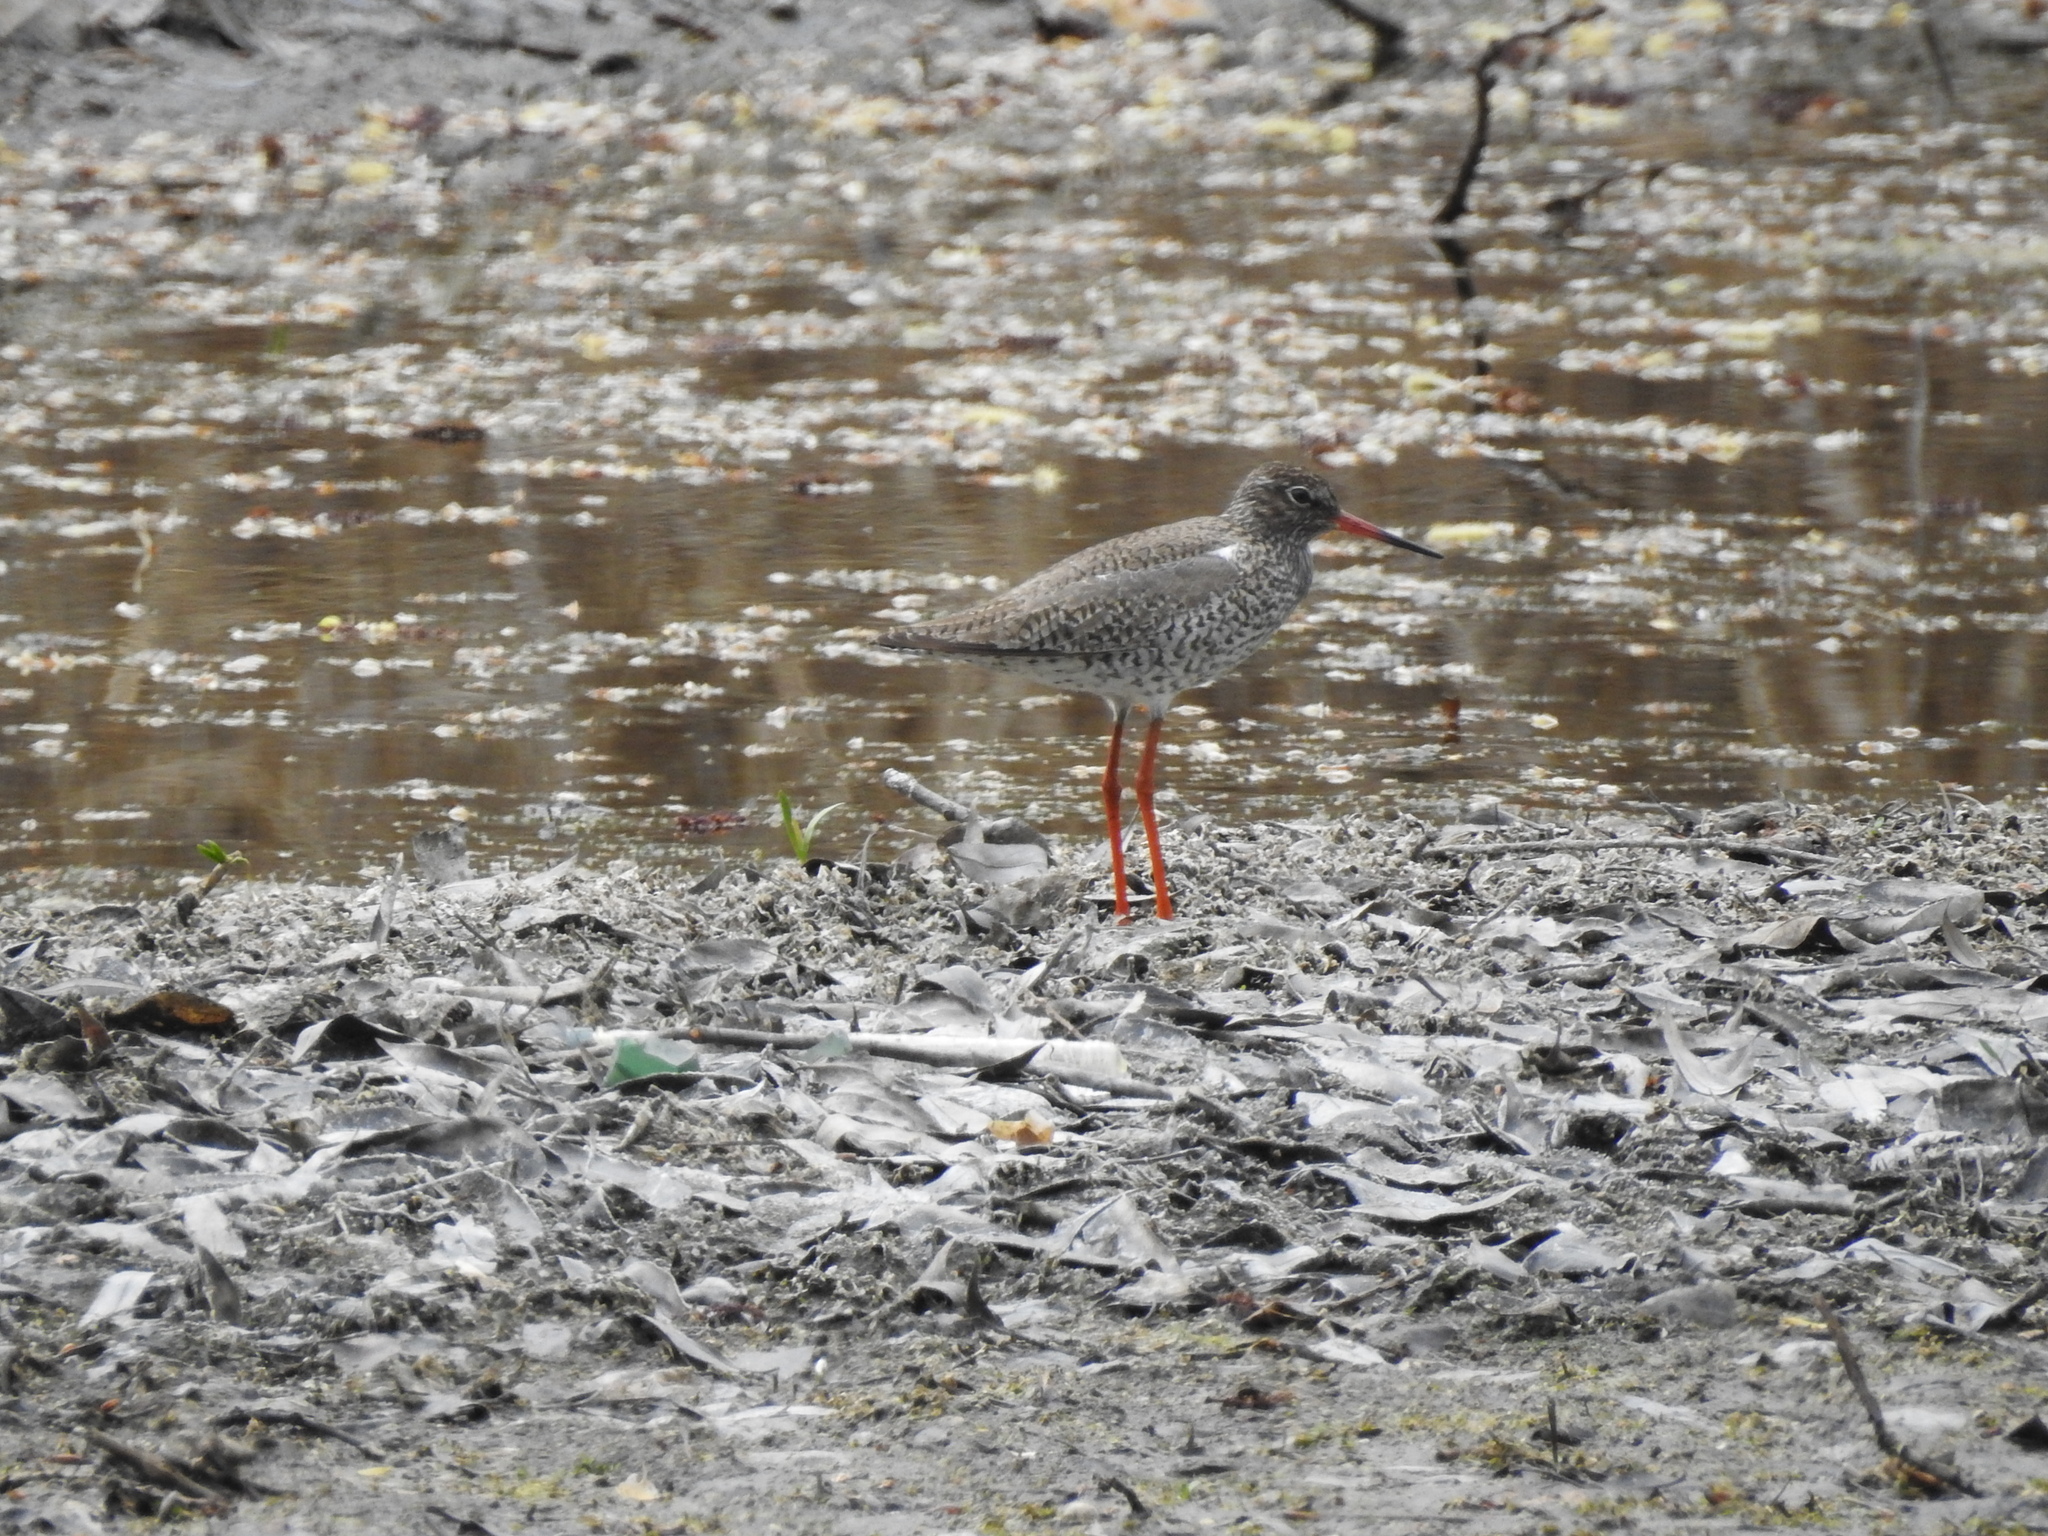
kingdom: Animalia
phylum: Chordata
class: Aves
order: Charadriiformes
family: Scolopacidae
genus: Tringa
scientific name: Tringa totanus
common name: Common redshank
